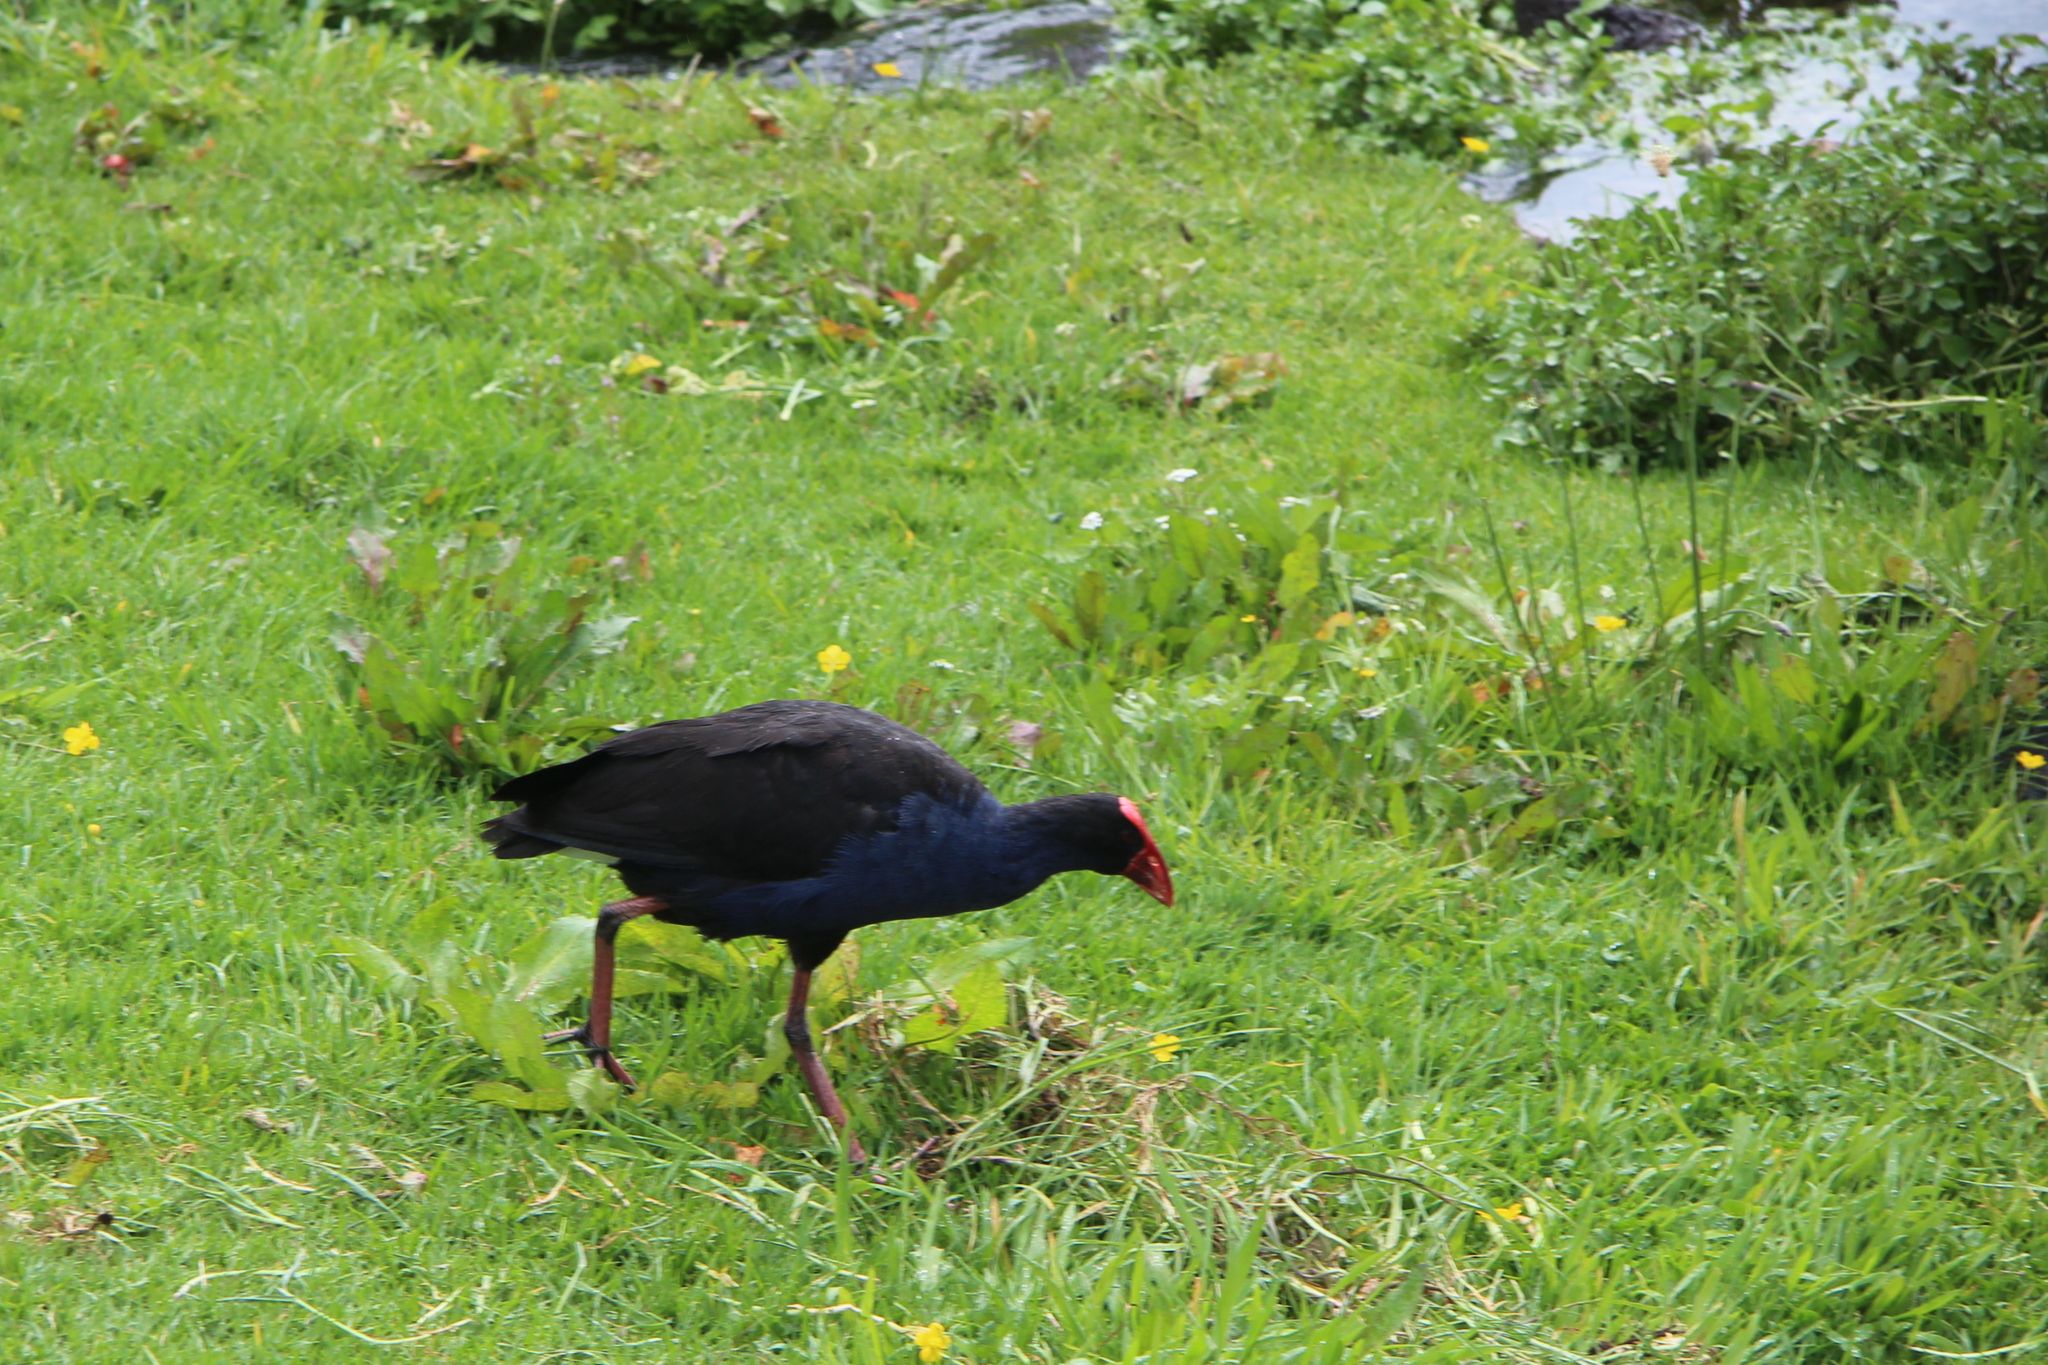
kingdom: Animalia
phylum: Chordata
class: Aves
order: Gruiformes
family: Rallidae
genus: Porphyrio
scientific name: Porphyrio melanotus
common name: Australasian swamphen
